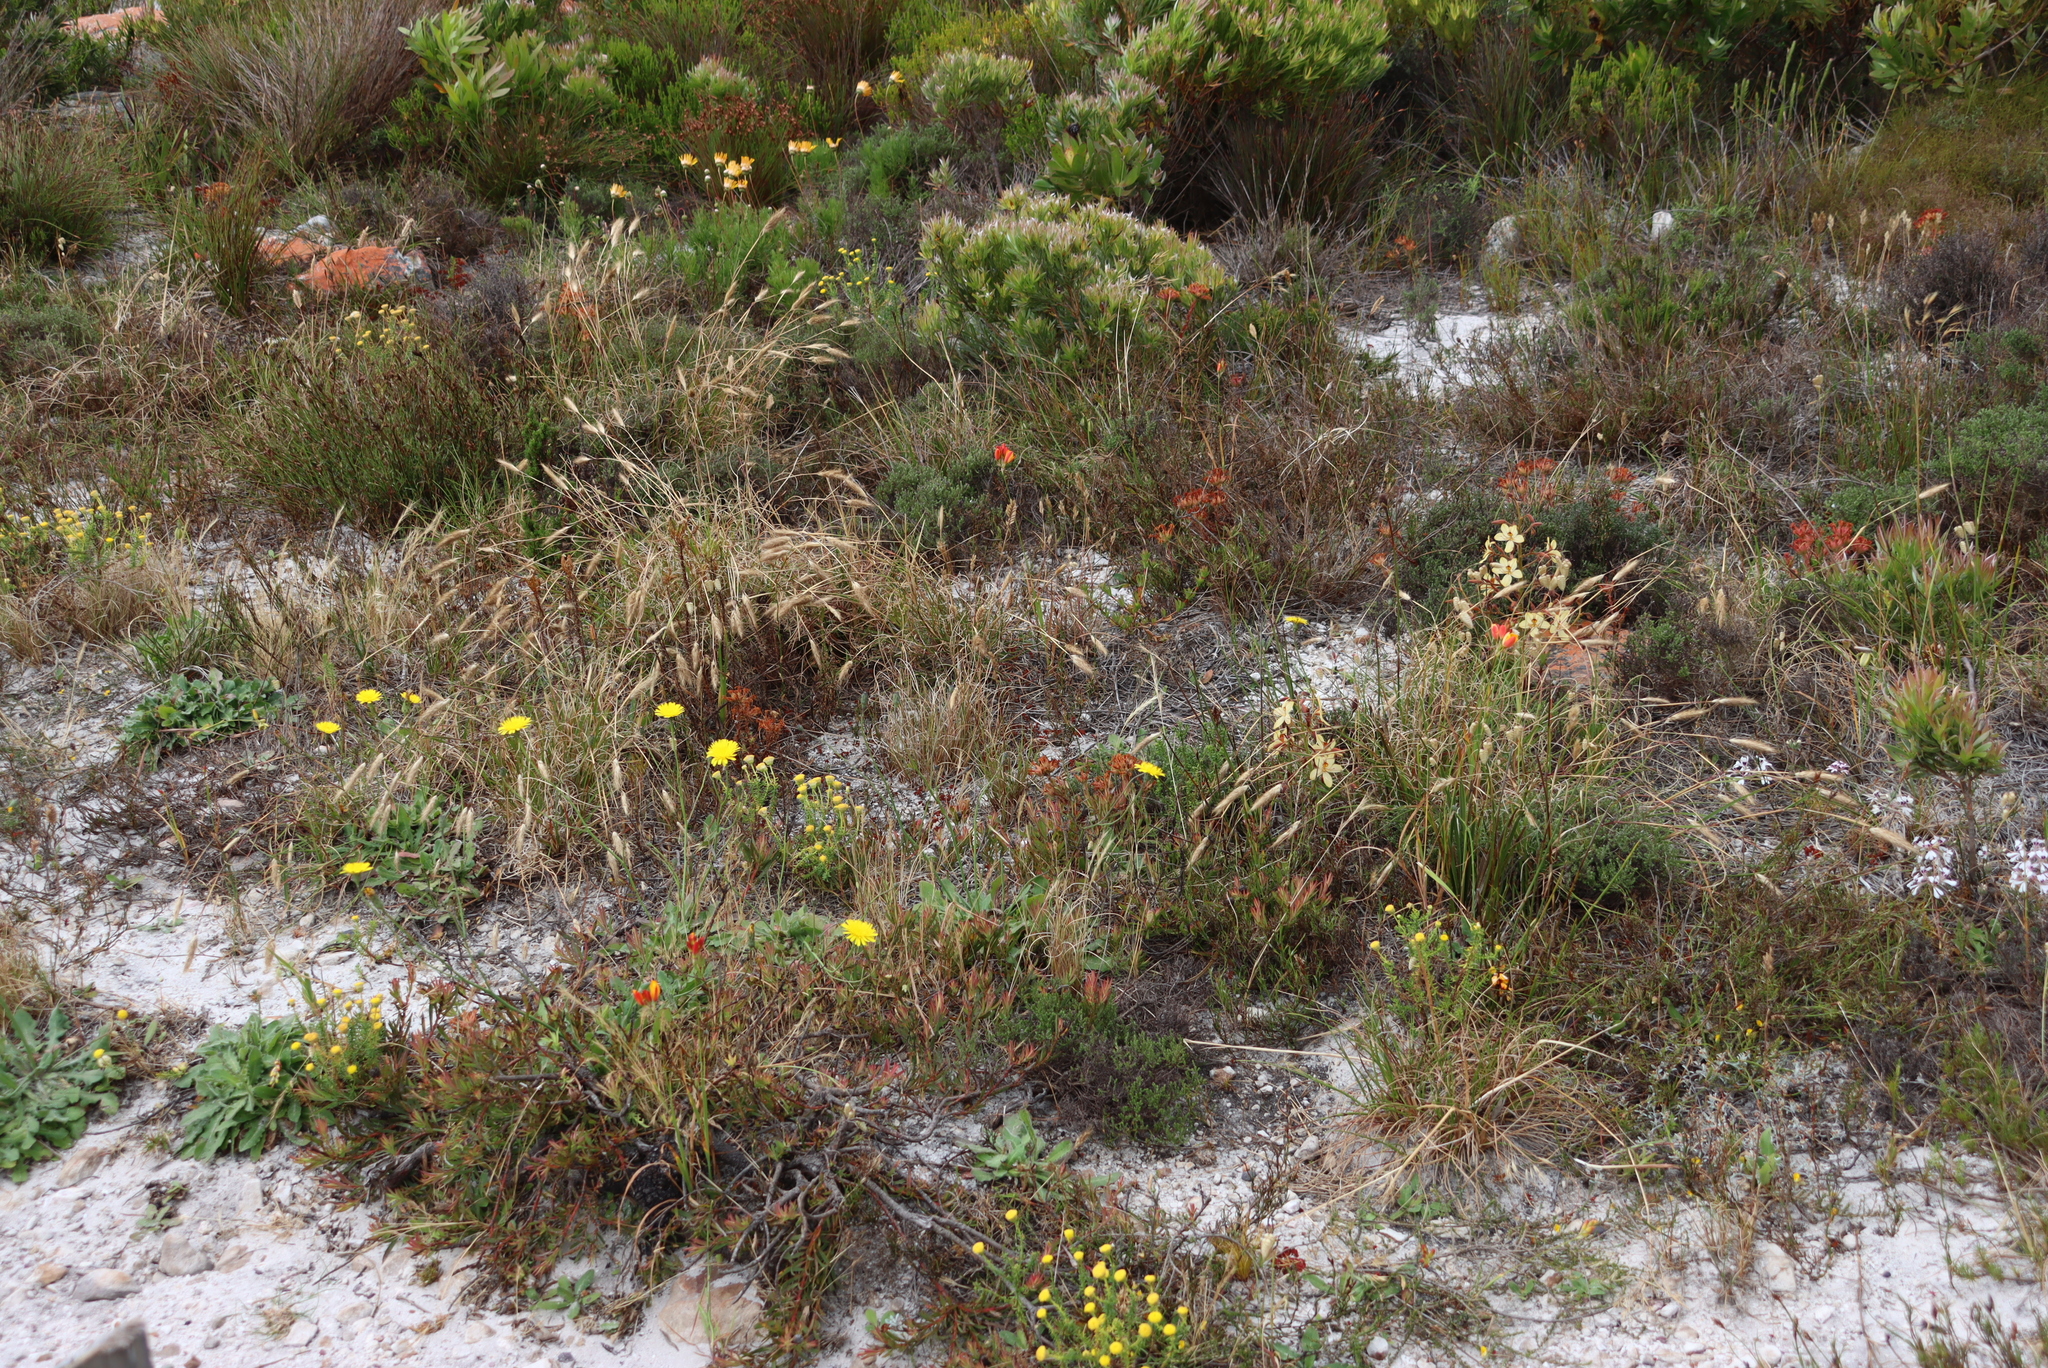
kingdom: Plantae
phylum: Tracheophyta
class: Magnoliopsida
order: Asterales
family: Asteraceae
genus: Hypochaeris
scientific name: Hypochaeris radicata
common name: Flatweed
